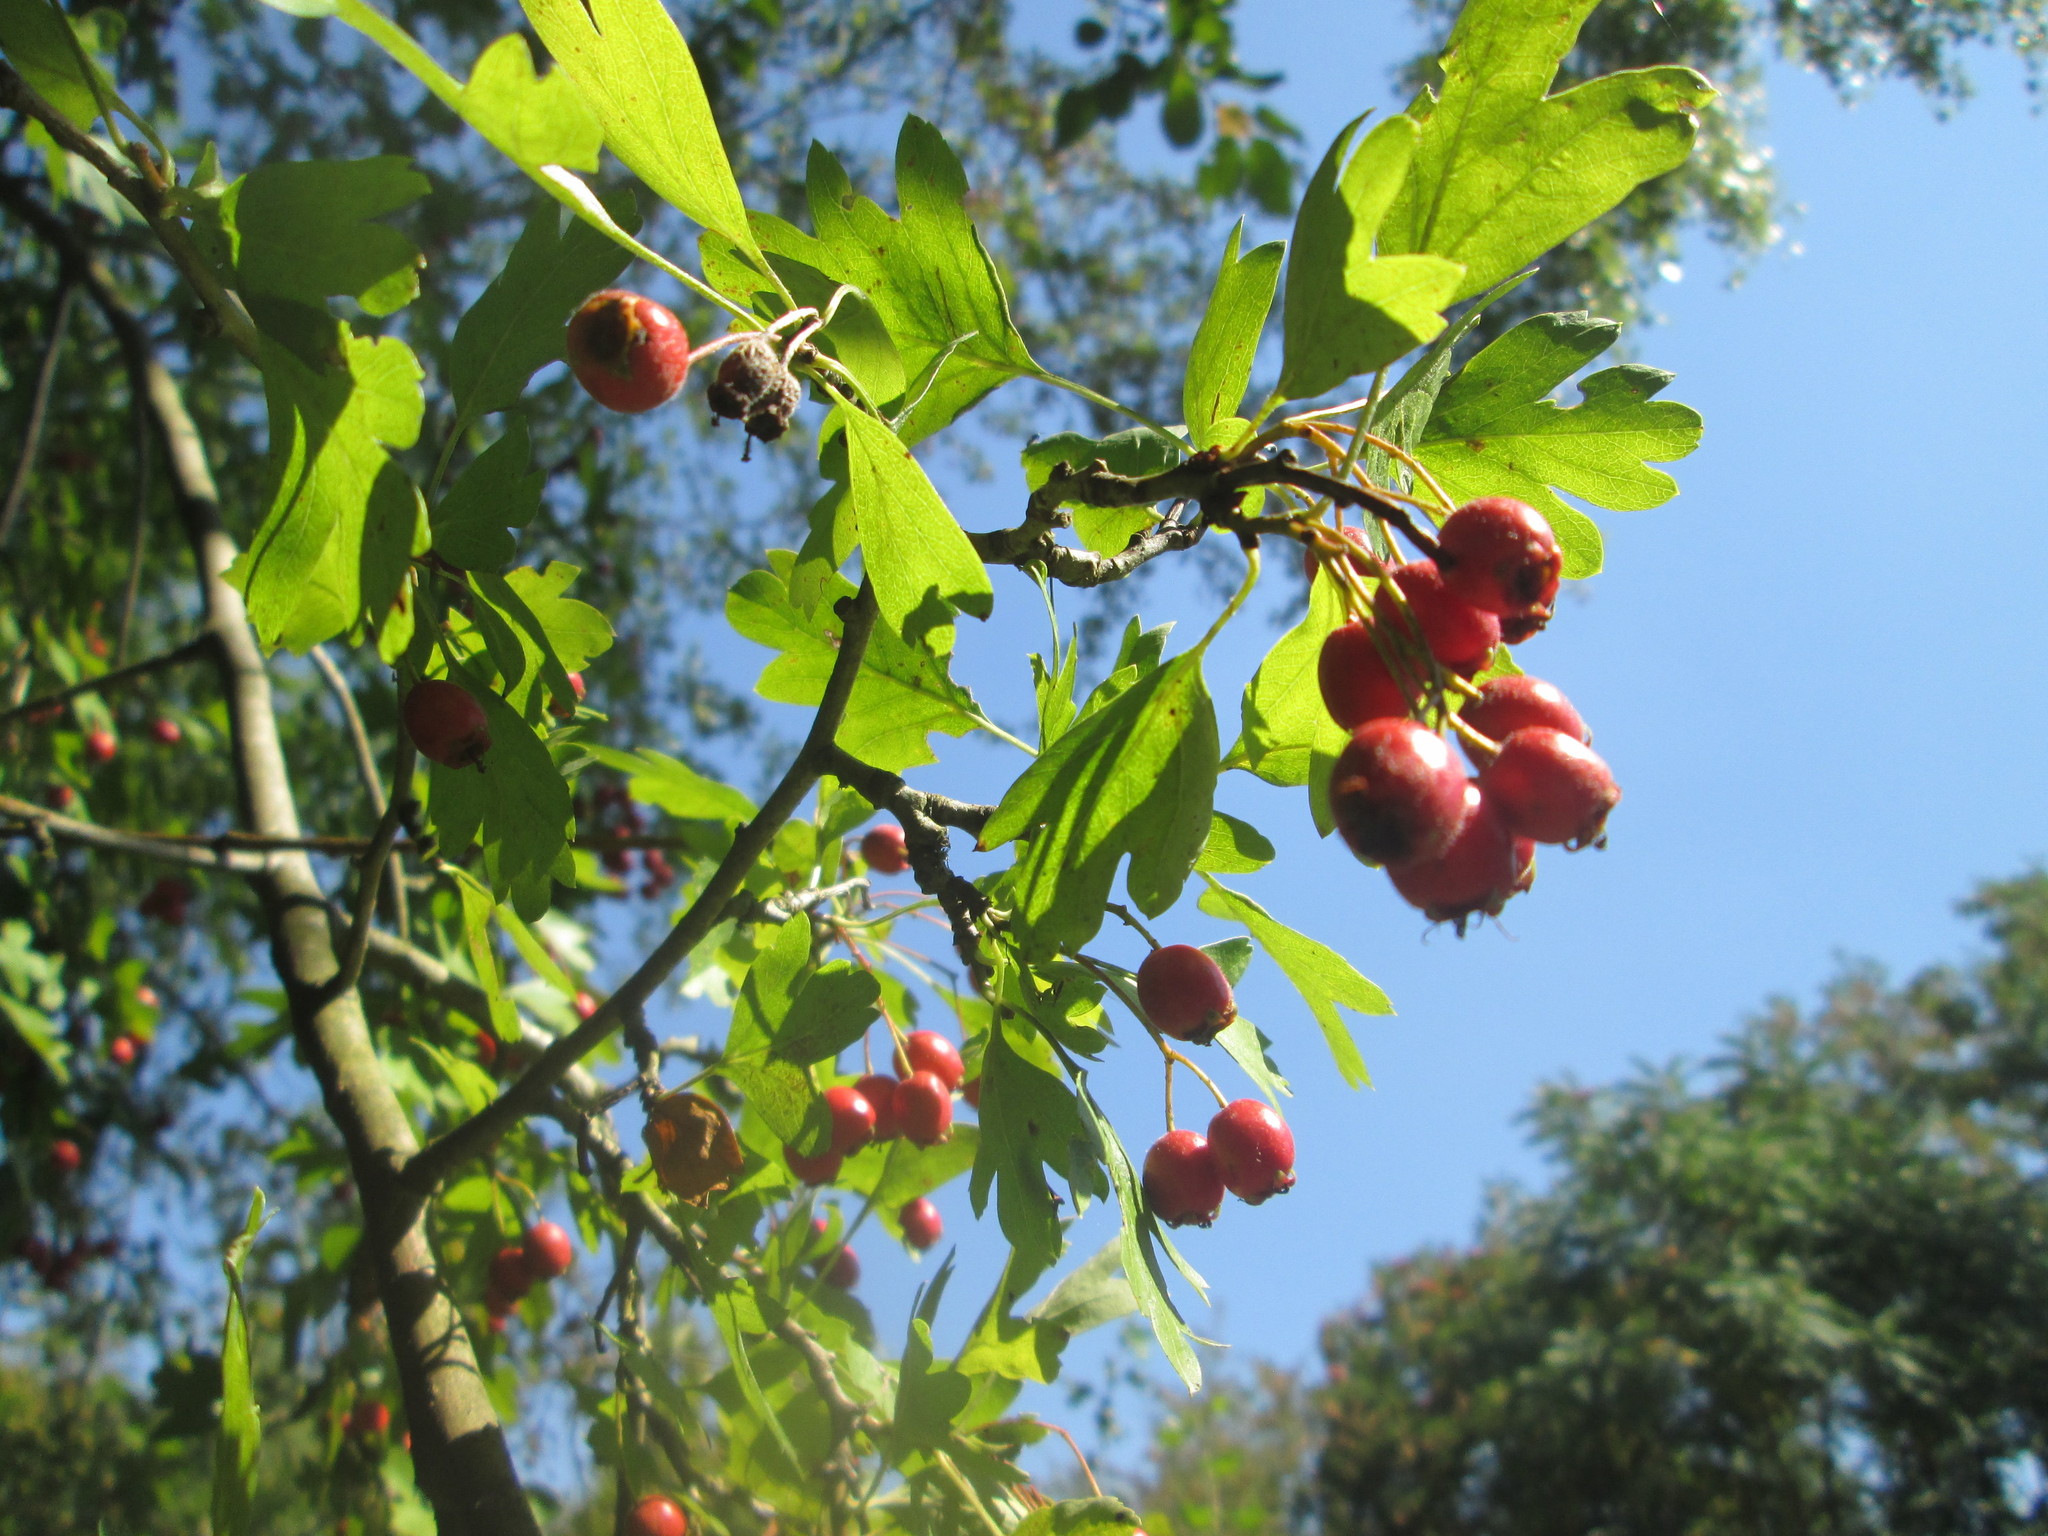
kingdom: Plantae
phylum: Tracheophyta
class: Magnoliopsida
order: Rosales
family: Rosaceae
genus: Crataegus
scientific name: Crataegus monogyna
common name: Hawthorn
